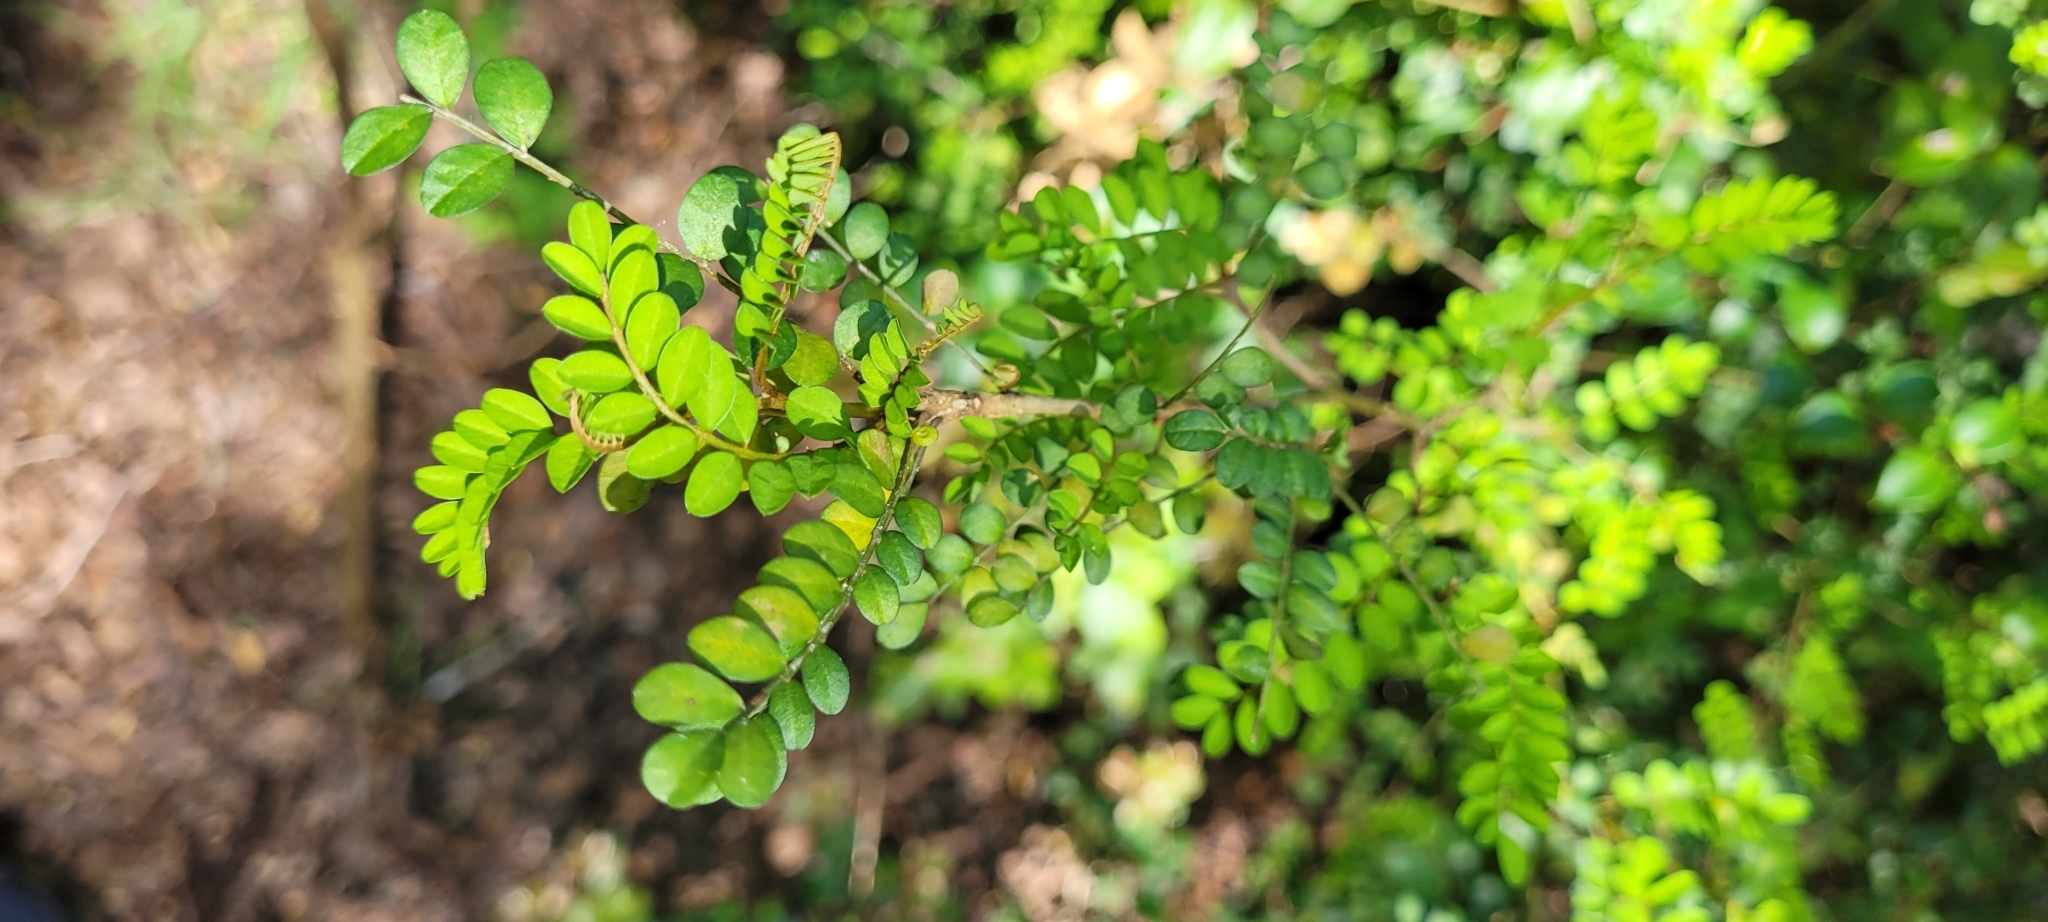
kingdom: Plantae
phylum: Tracheophyta
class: Magnoliopsida
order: Fabales
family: Fabaceae
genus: Sophora
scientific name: Sophora cassioides
